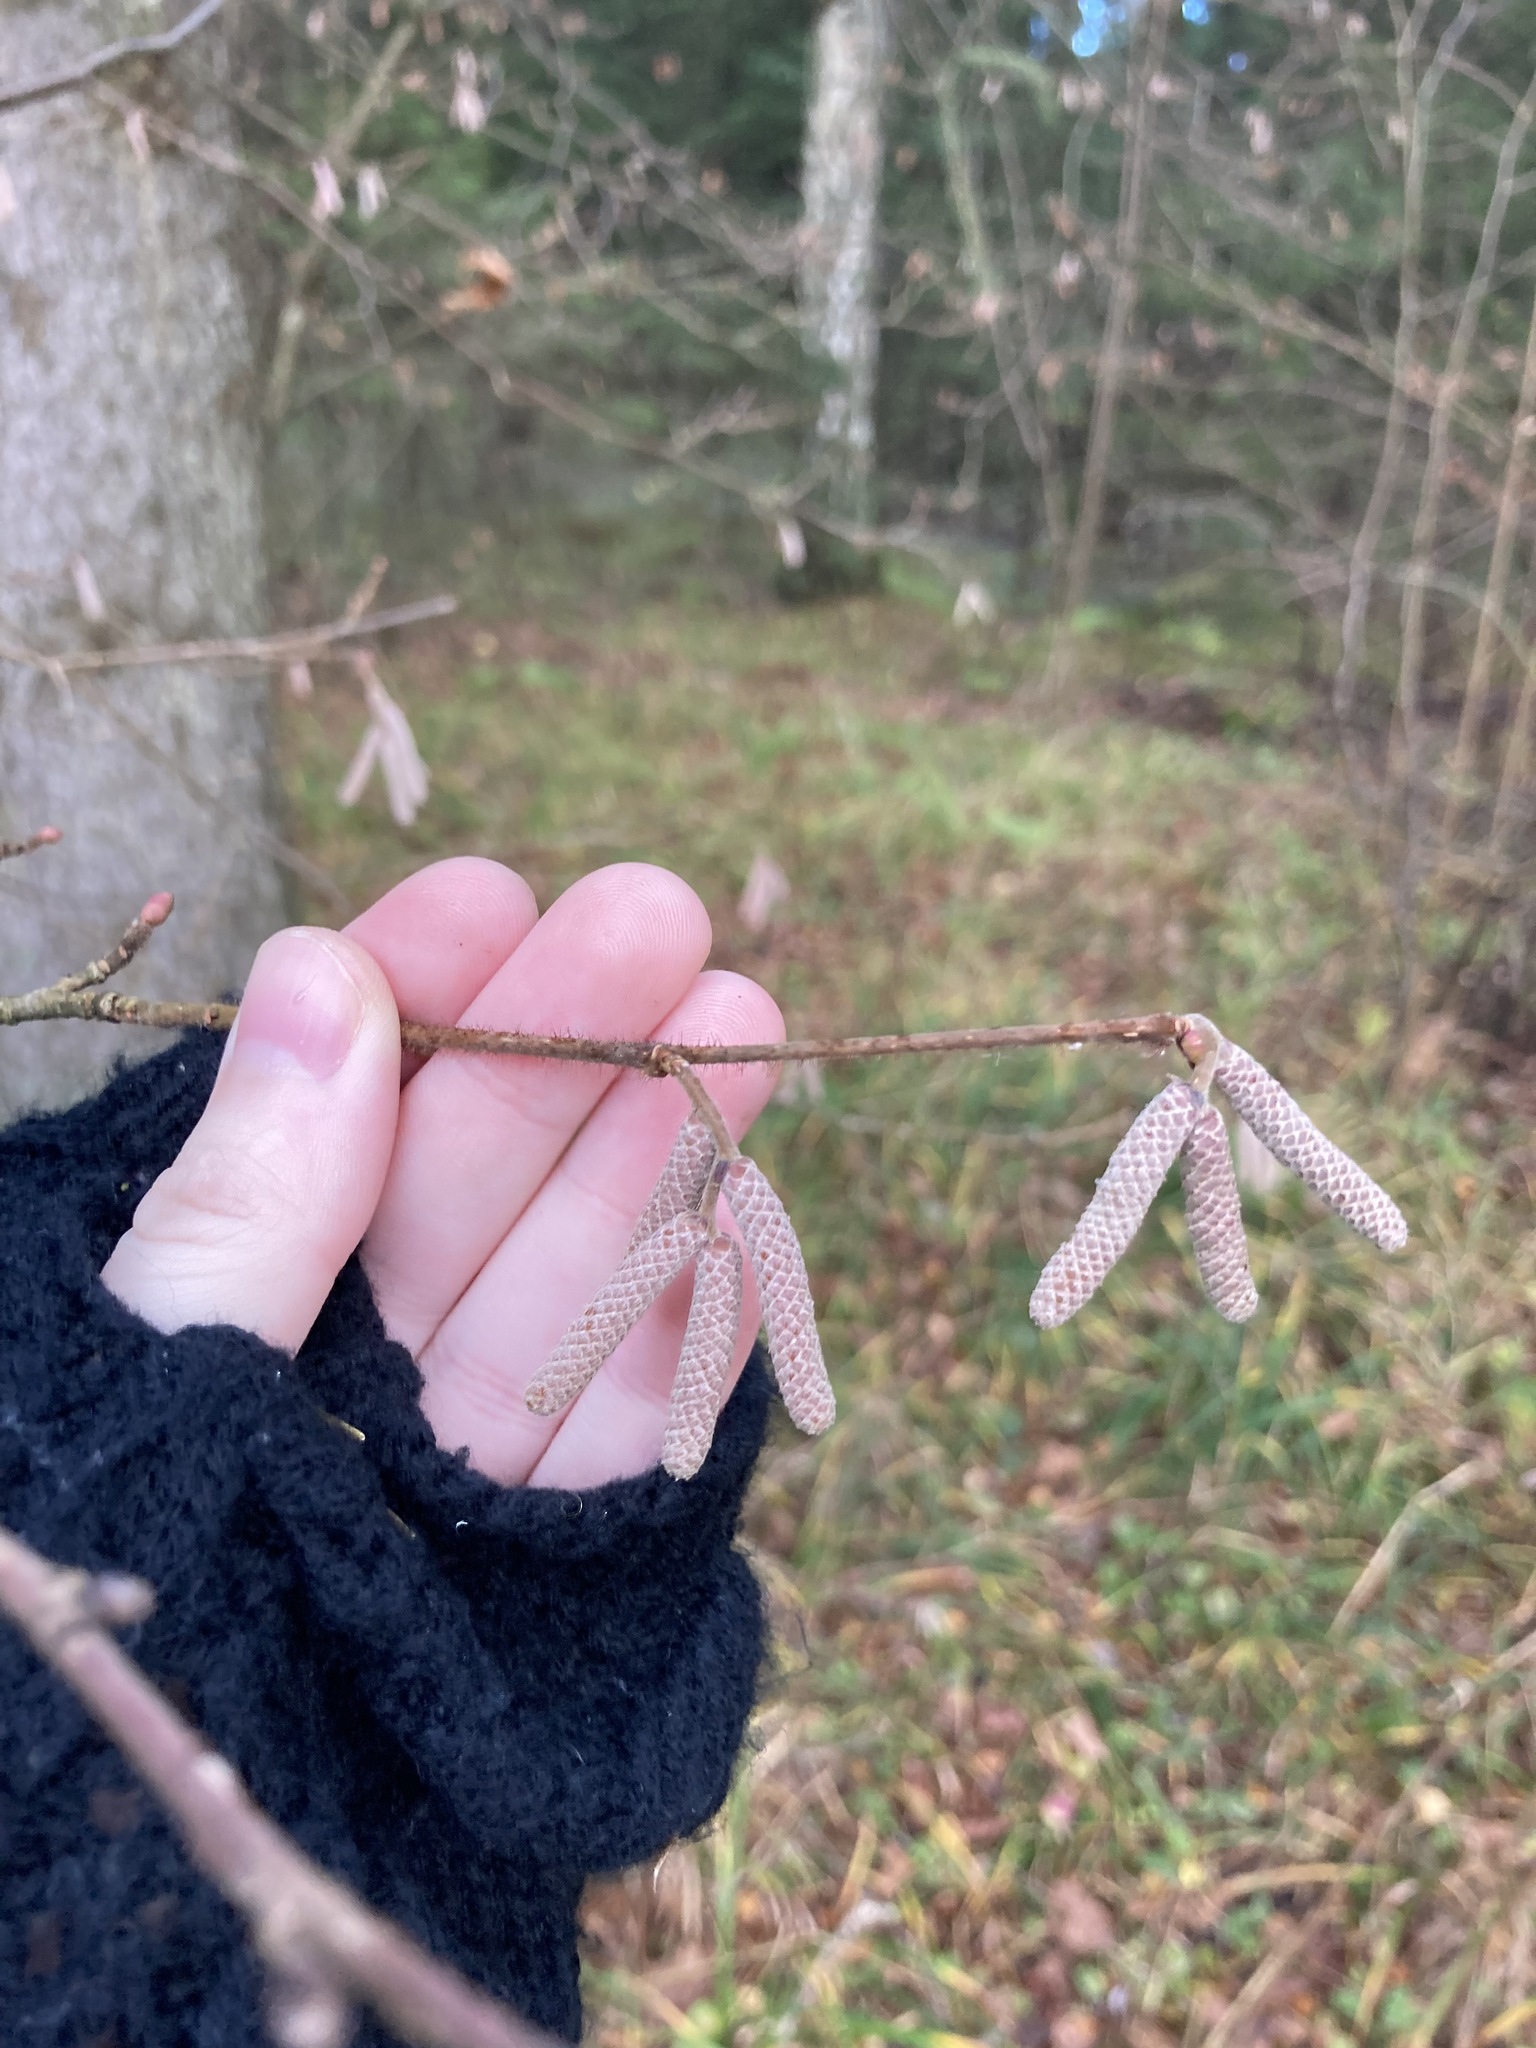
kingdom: Plantae
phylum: Tracheophyta
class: Magnoliopsida
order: Fagales
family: Betulaceae
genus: Corylus
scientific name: Corylus avellana
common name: European hazel
